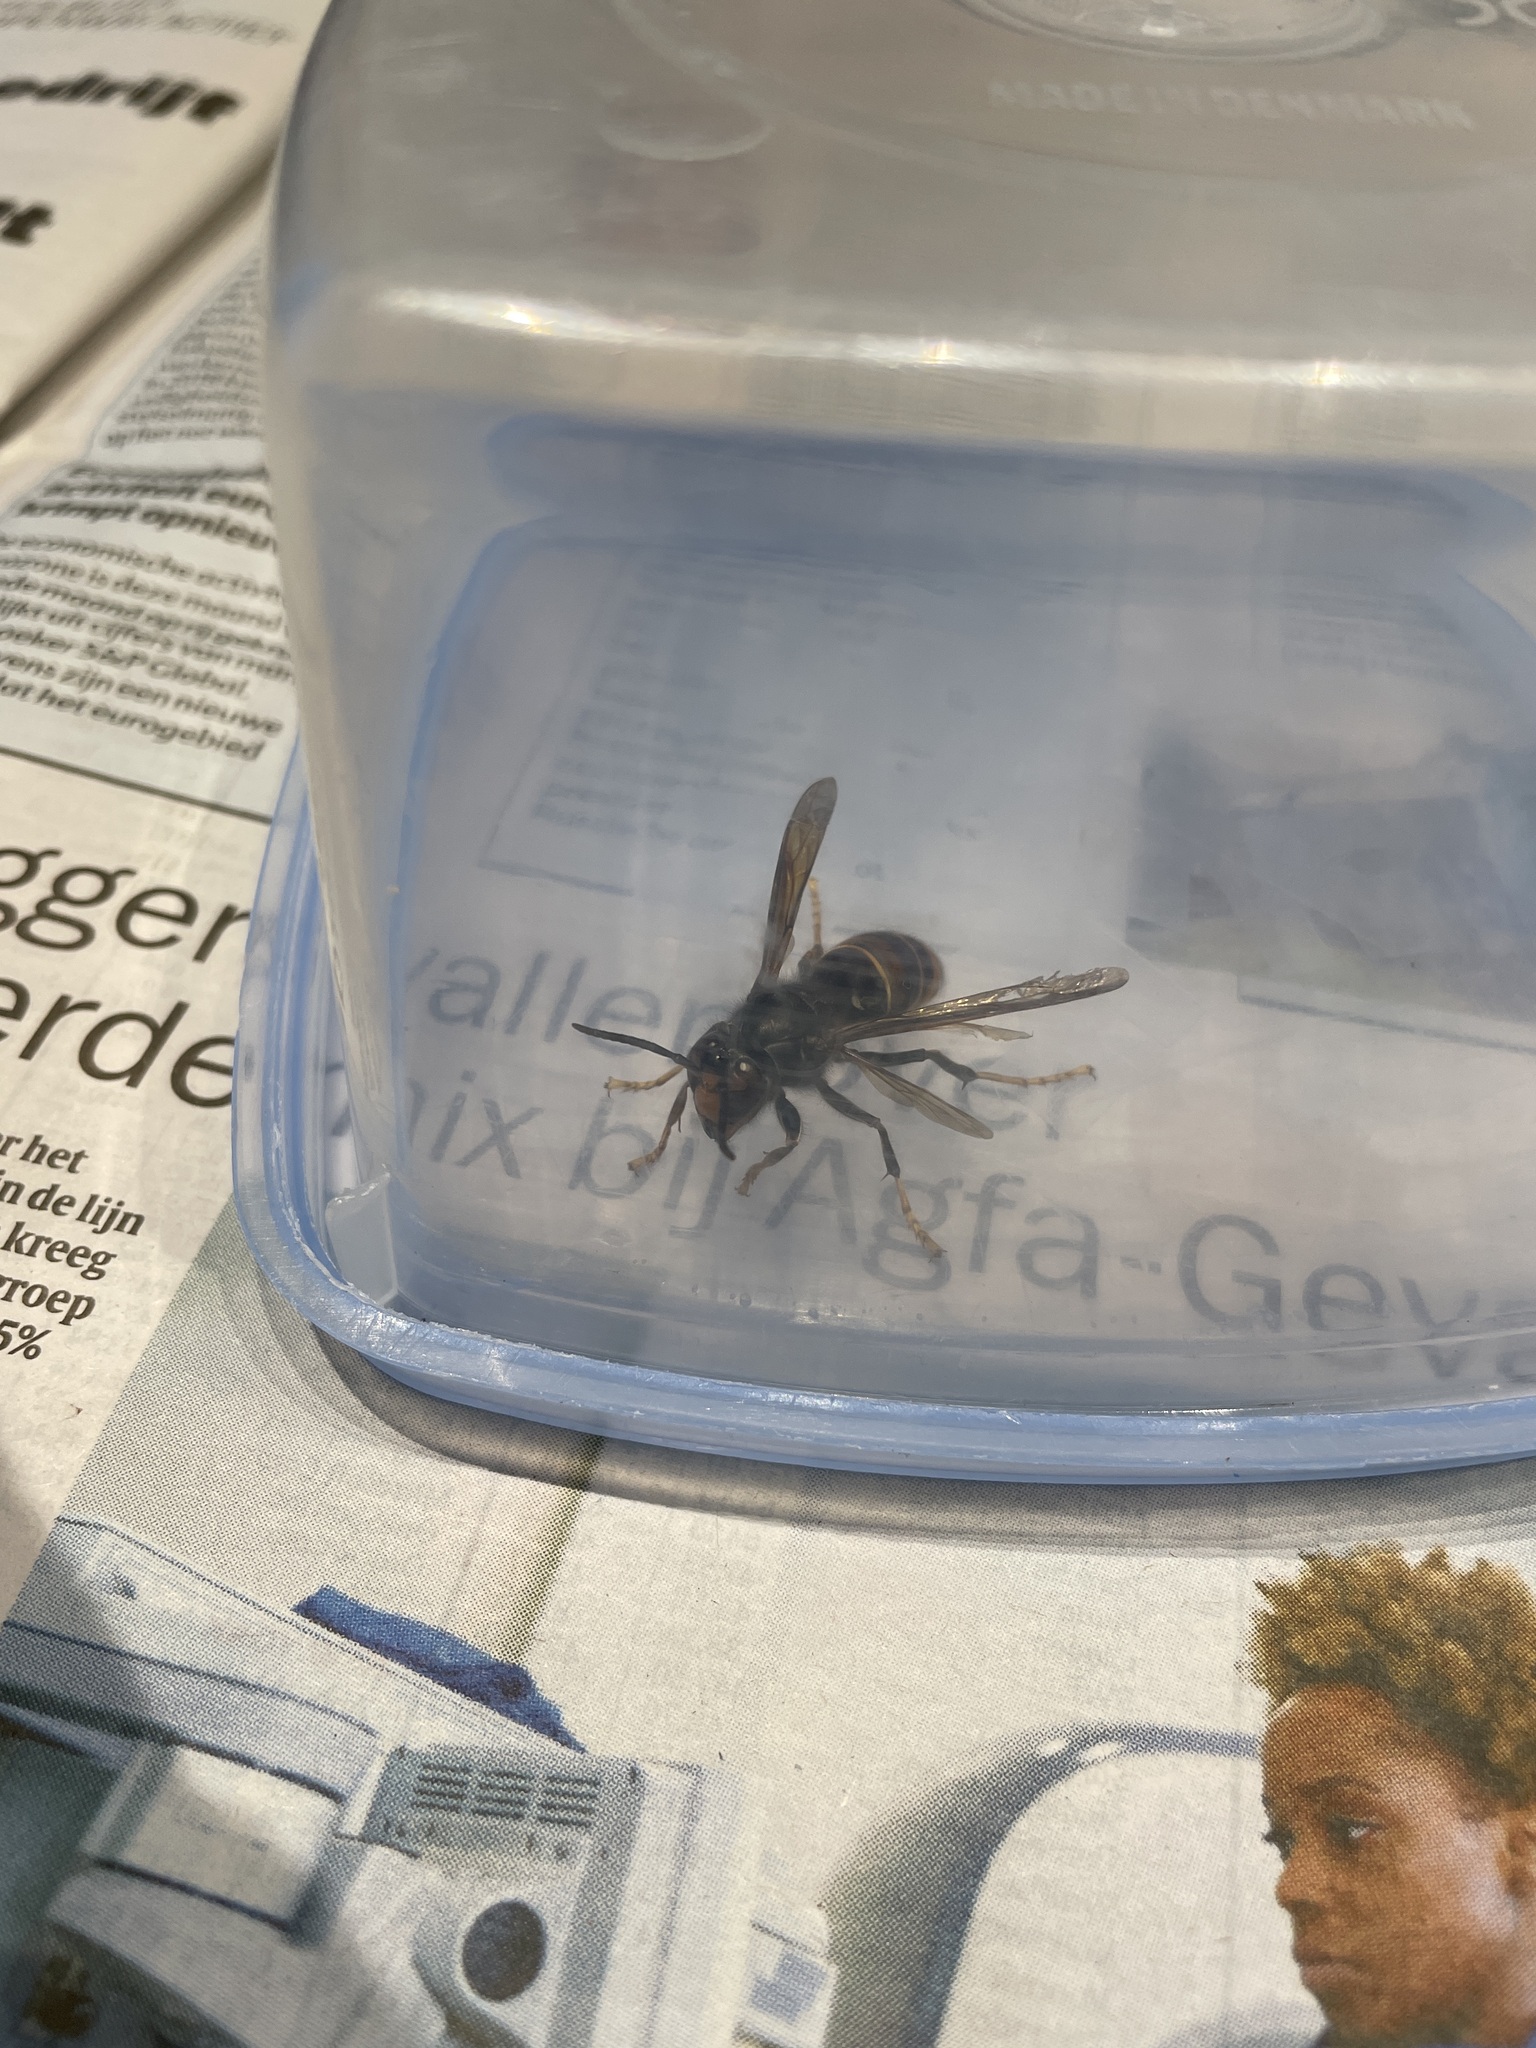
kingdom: Animalia
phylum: Arthropoda
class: Insecta
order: Hymenoptera
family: Vespidae
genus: Vespa
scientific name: Vespa velutina
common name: Asian hornet
